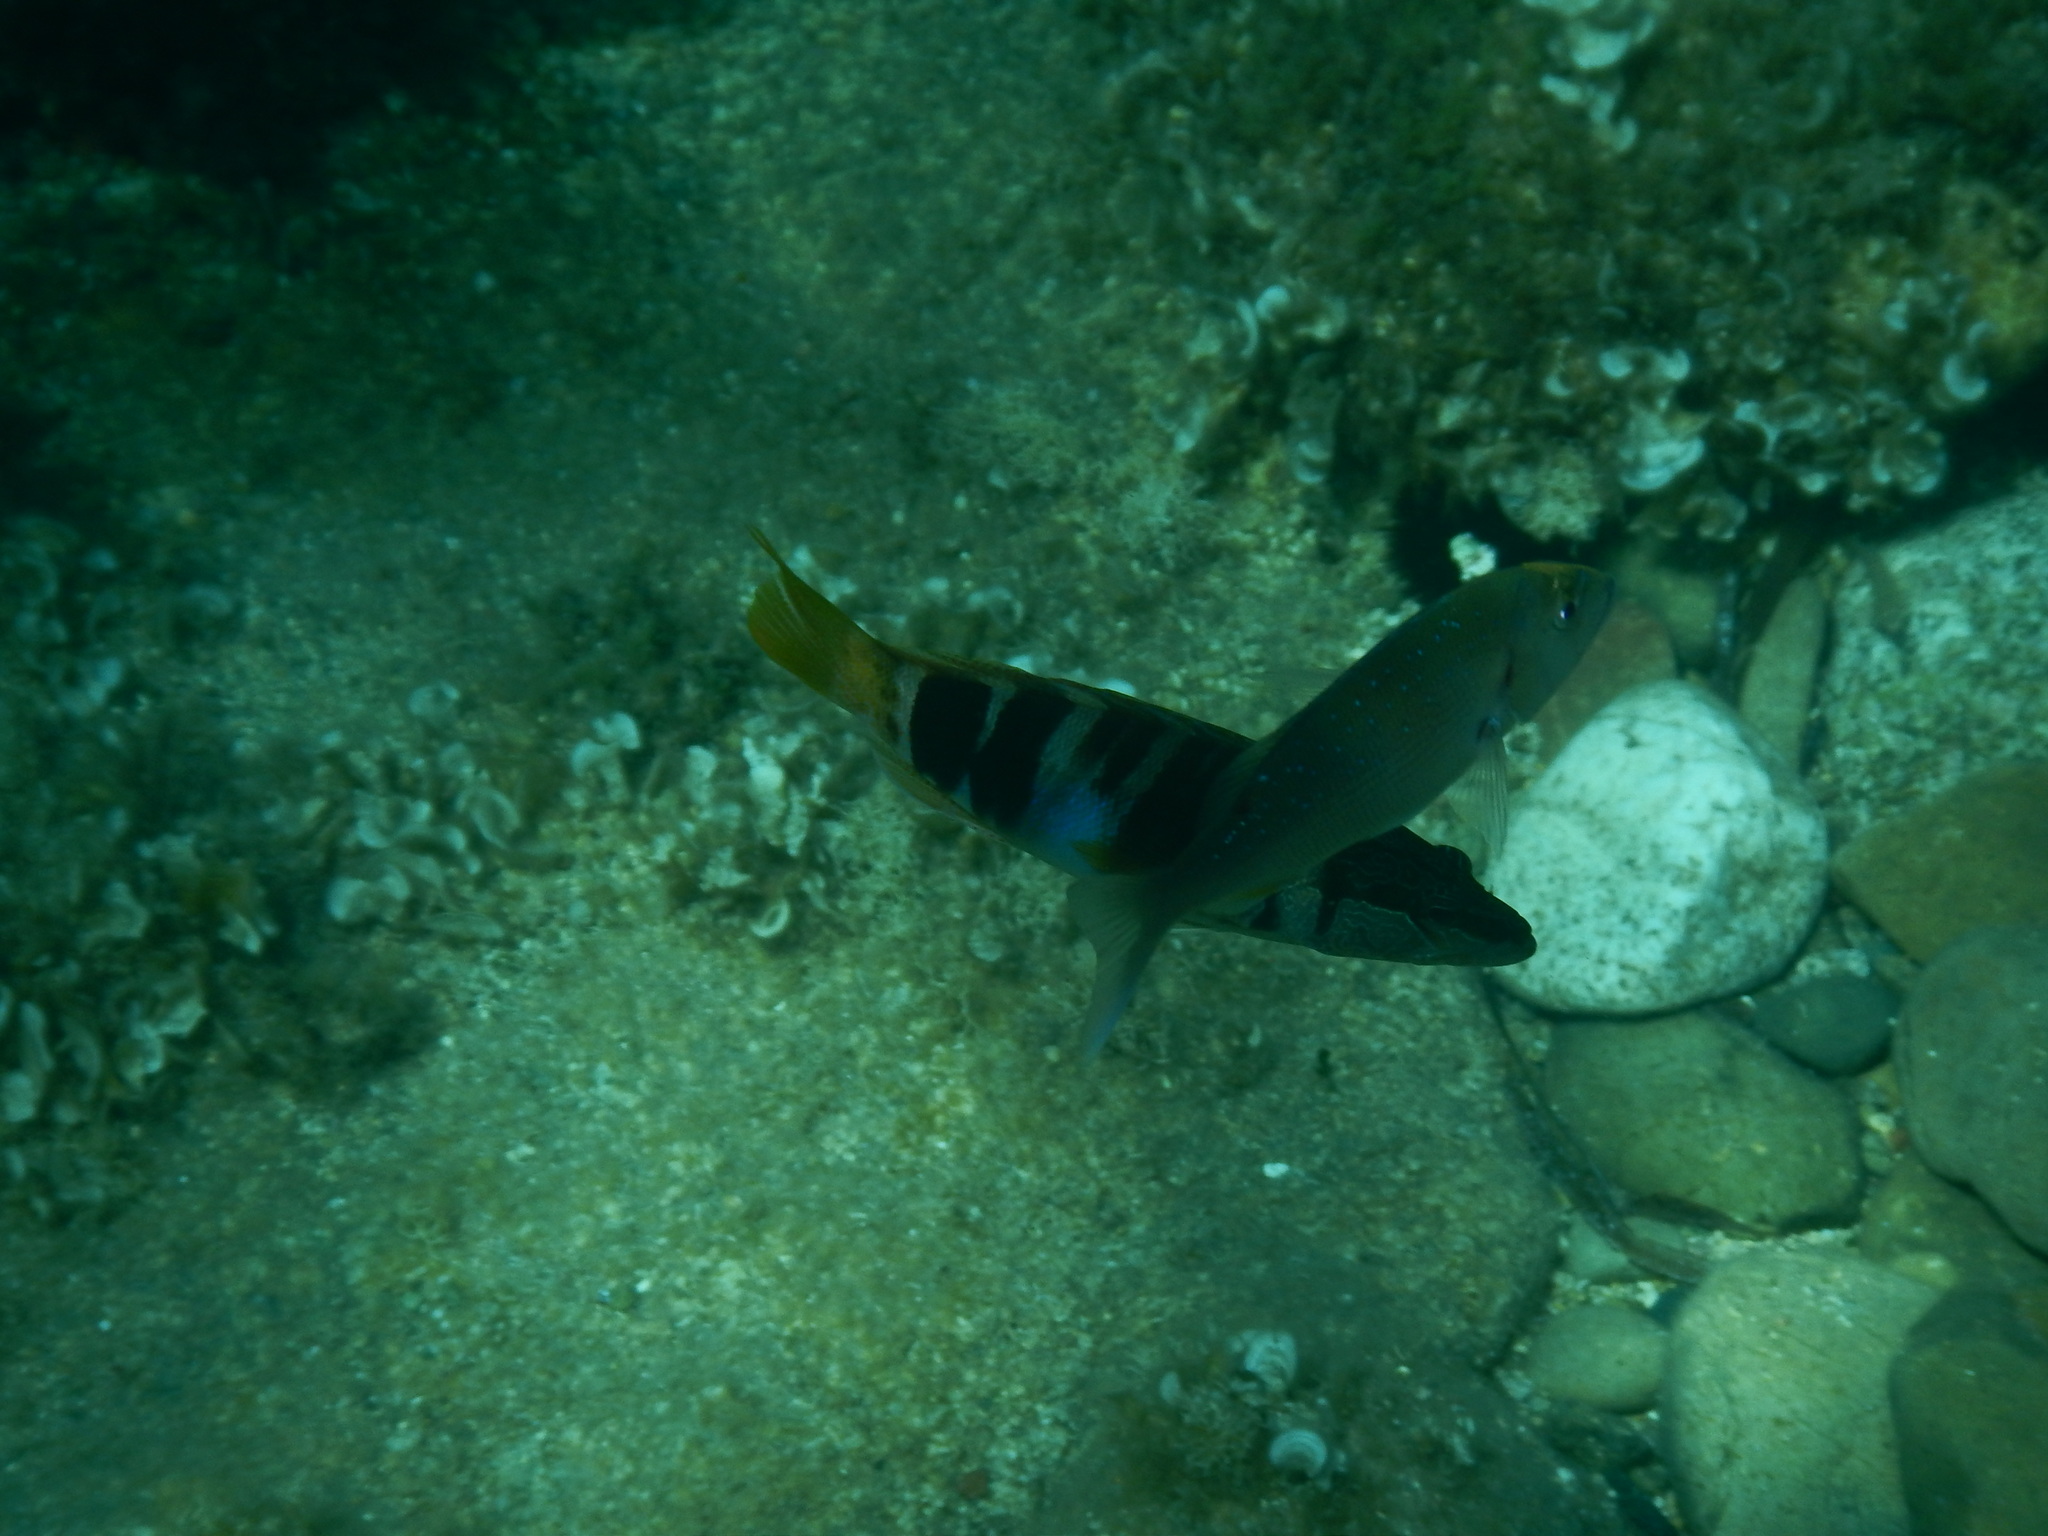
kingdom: Animalia
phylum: Chordata
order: Perciformes
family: Sparidae
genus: Dentex
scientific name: Dentex dentex
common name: Dentex
